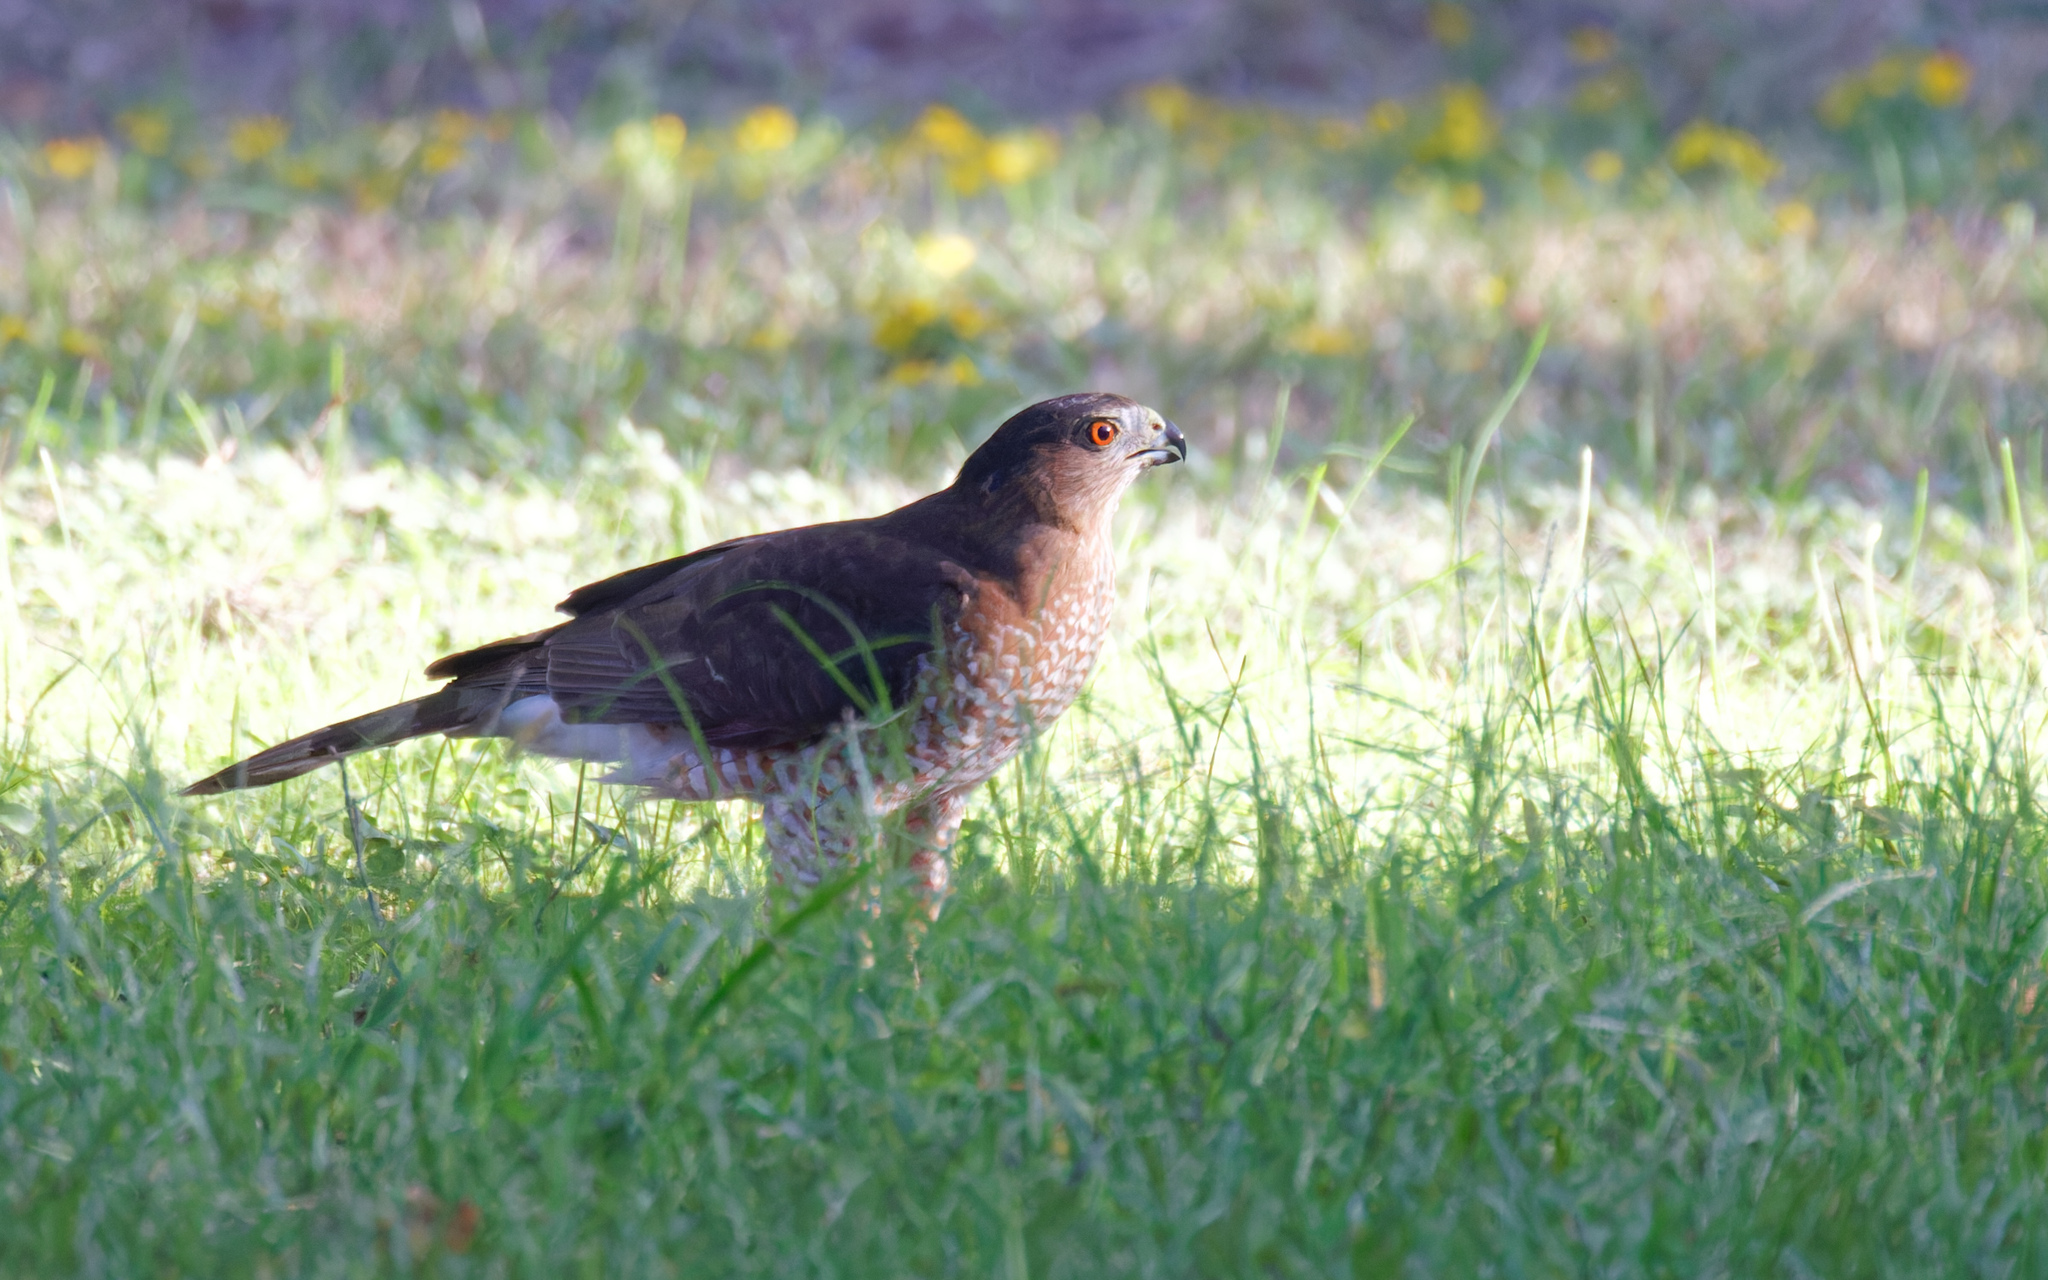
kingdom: Animalia
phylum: Chordata
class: Aves
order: Accipitriformes
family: Accipitridae
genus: Accipiter
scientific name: Accipiter cooperii
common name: Cooper's hawk
